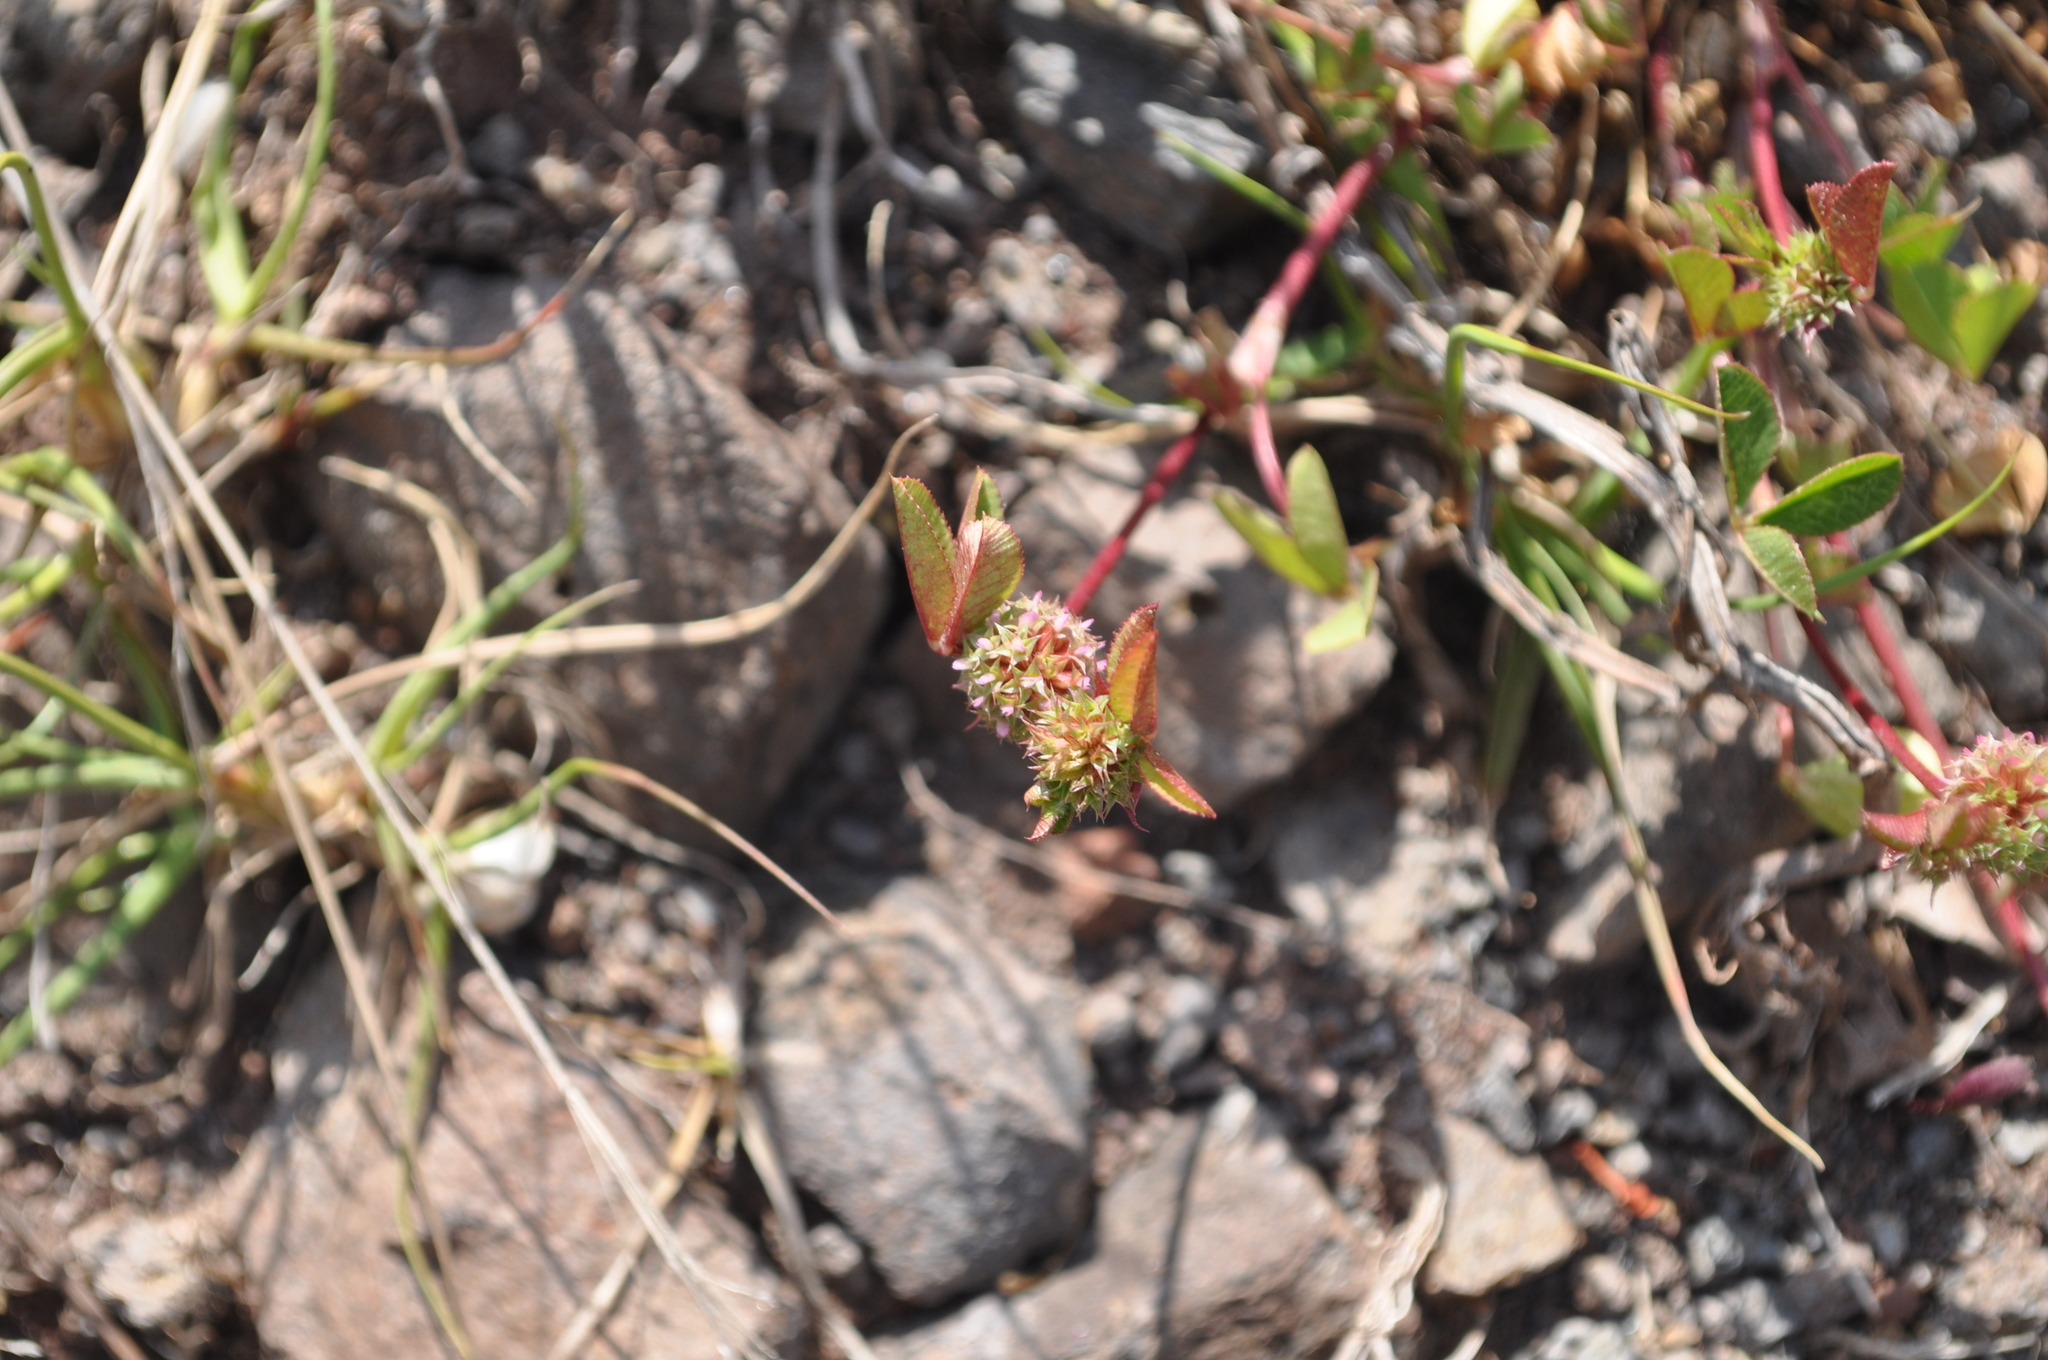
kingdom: Plantae
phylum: Tracheophyta
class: Magnoliopsida
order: Fabales
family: Fabaceae
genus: Trifolium
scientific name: Trifolium glomeratum
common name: Clustered clover
